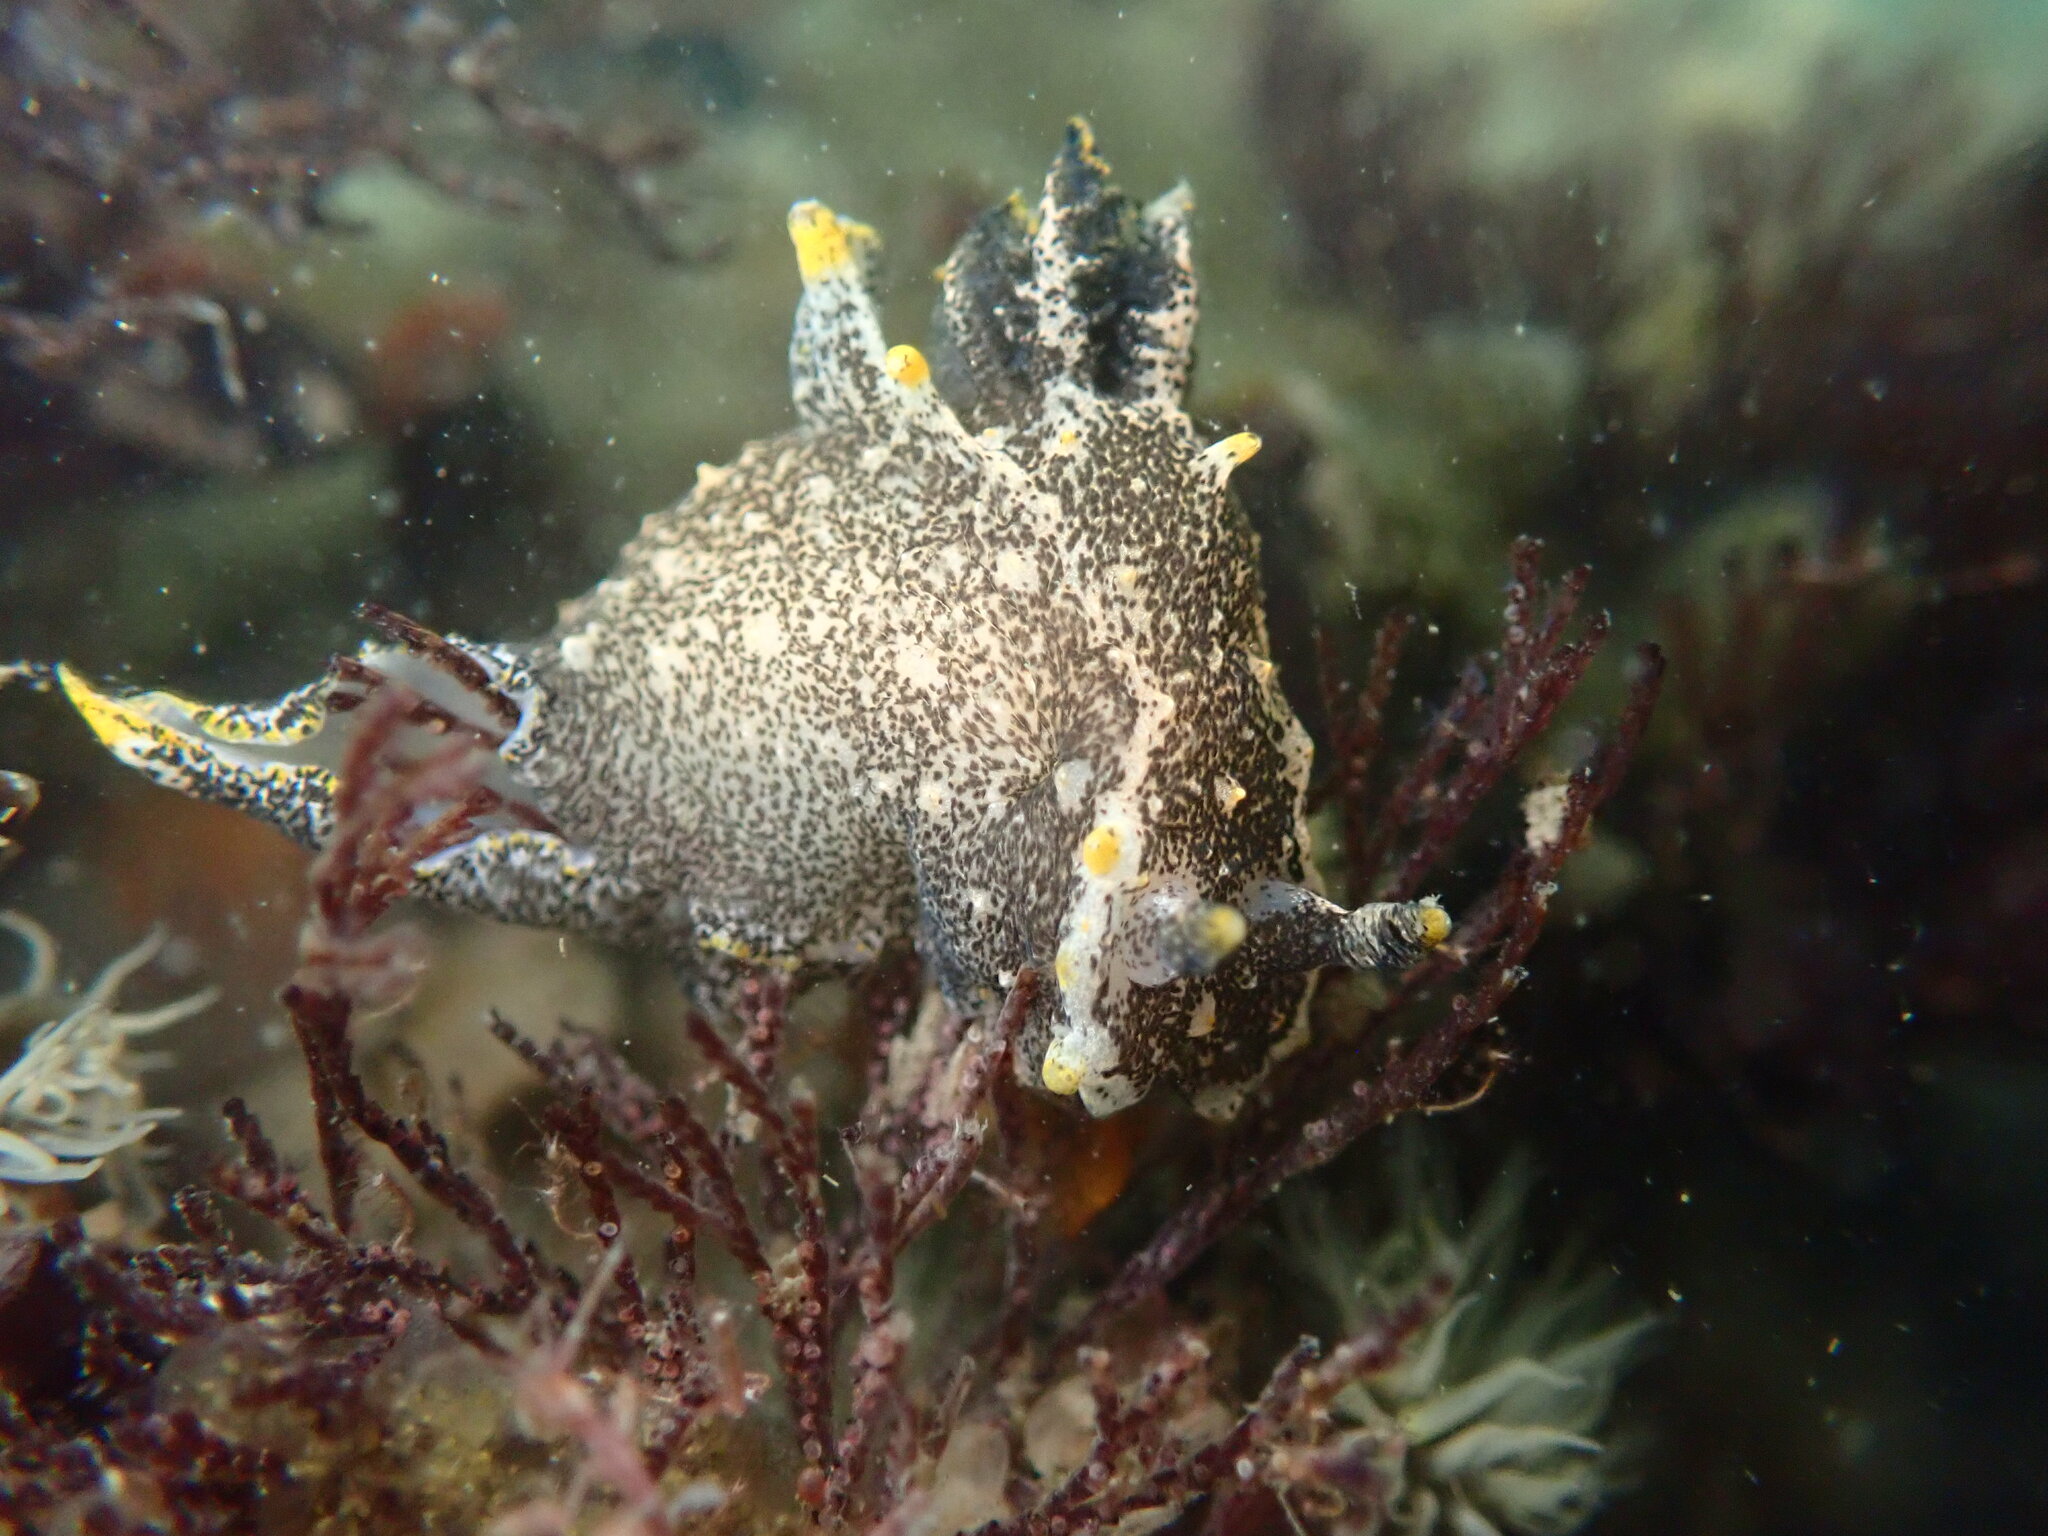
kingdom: Animalia
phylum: Mollusca
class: Gastropoda
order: Nudibranchia
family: Polyceridae
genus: Polycera
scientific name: Polycera hedgpethi
